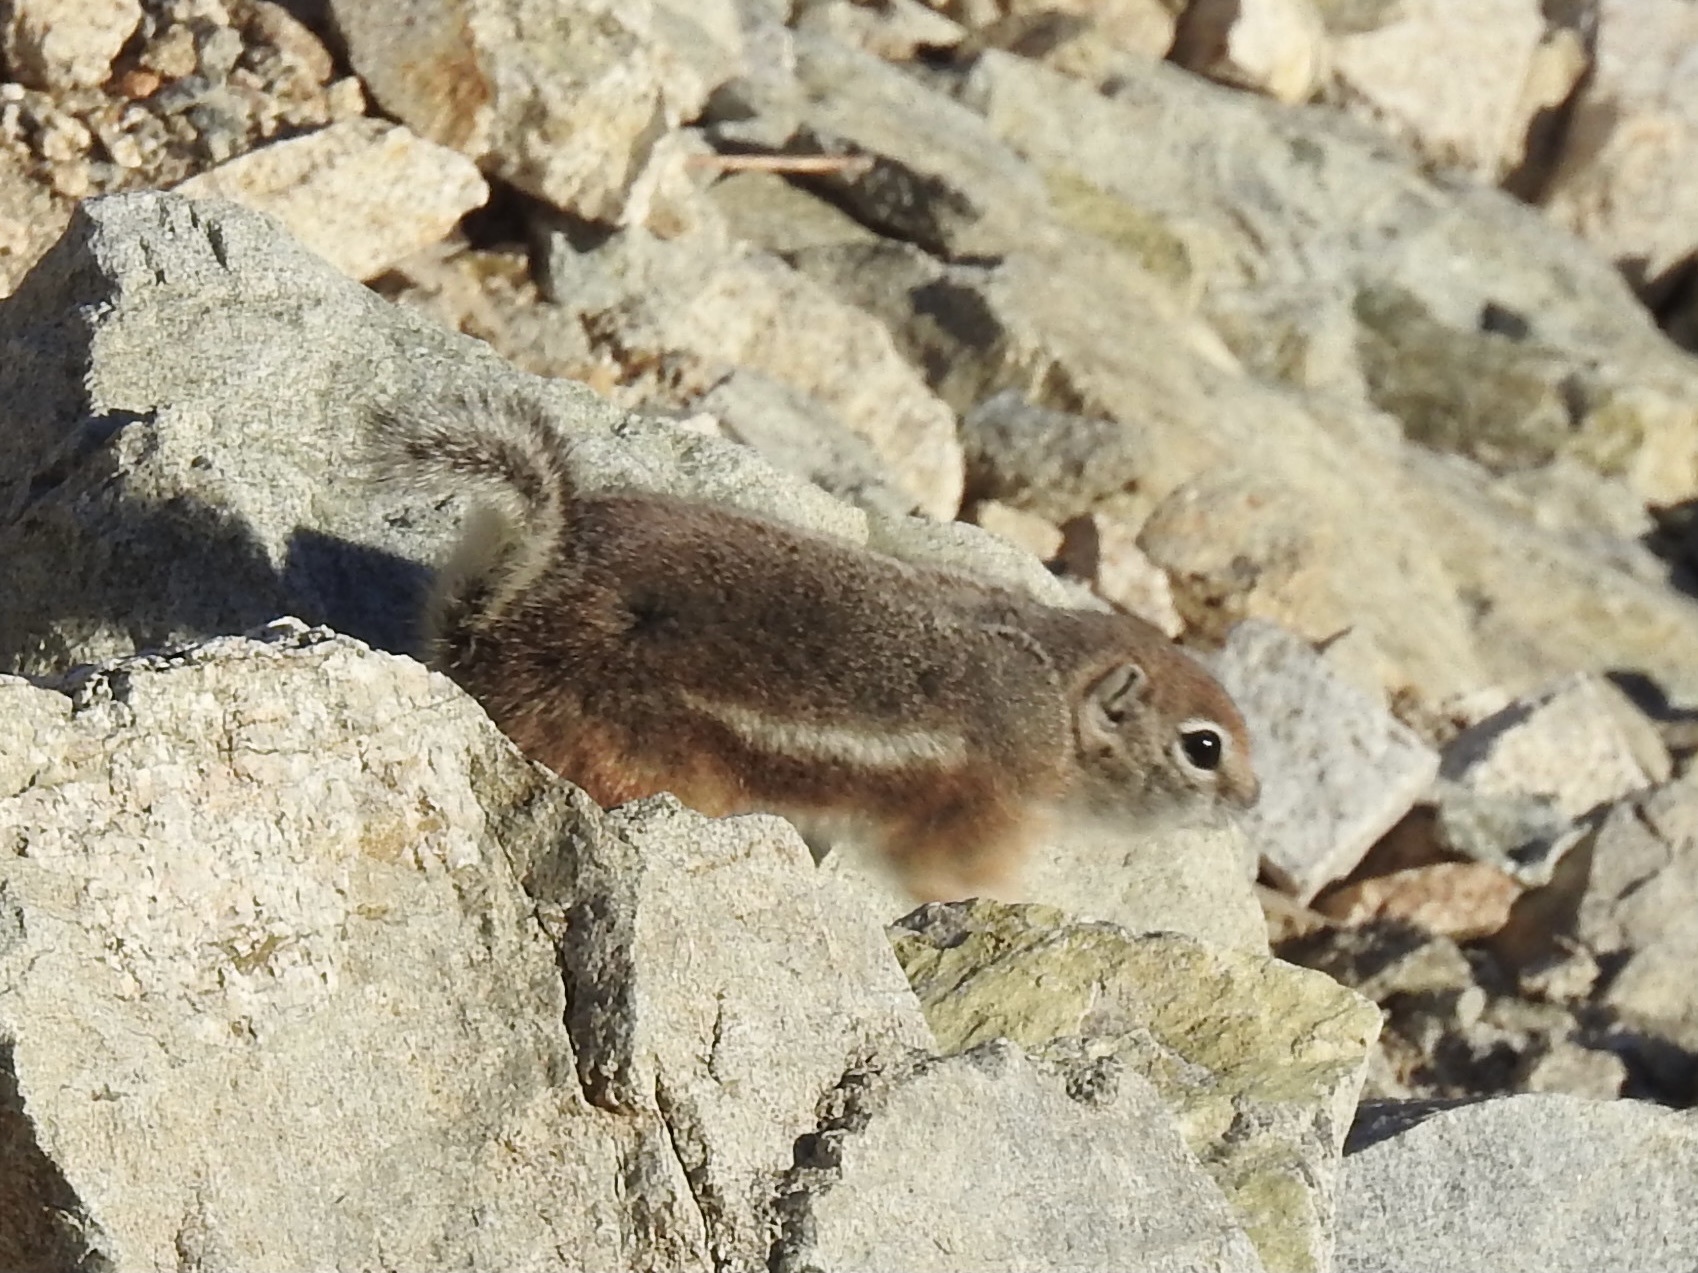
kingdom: Animalia
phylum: Chordata
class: Mammalia
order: Rodentia
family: Sciuridae
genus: Ammospermophilus
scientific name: Ammospermophilus leucurus
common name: White-tailed antelope squirrel
